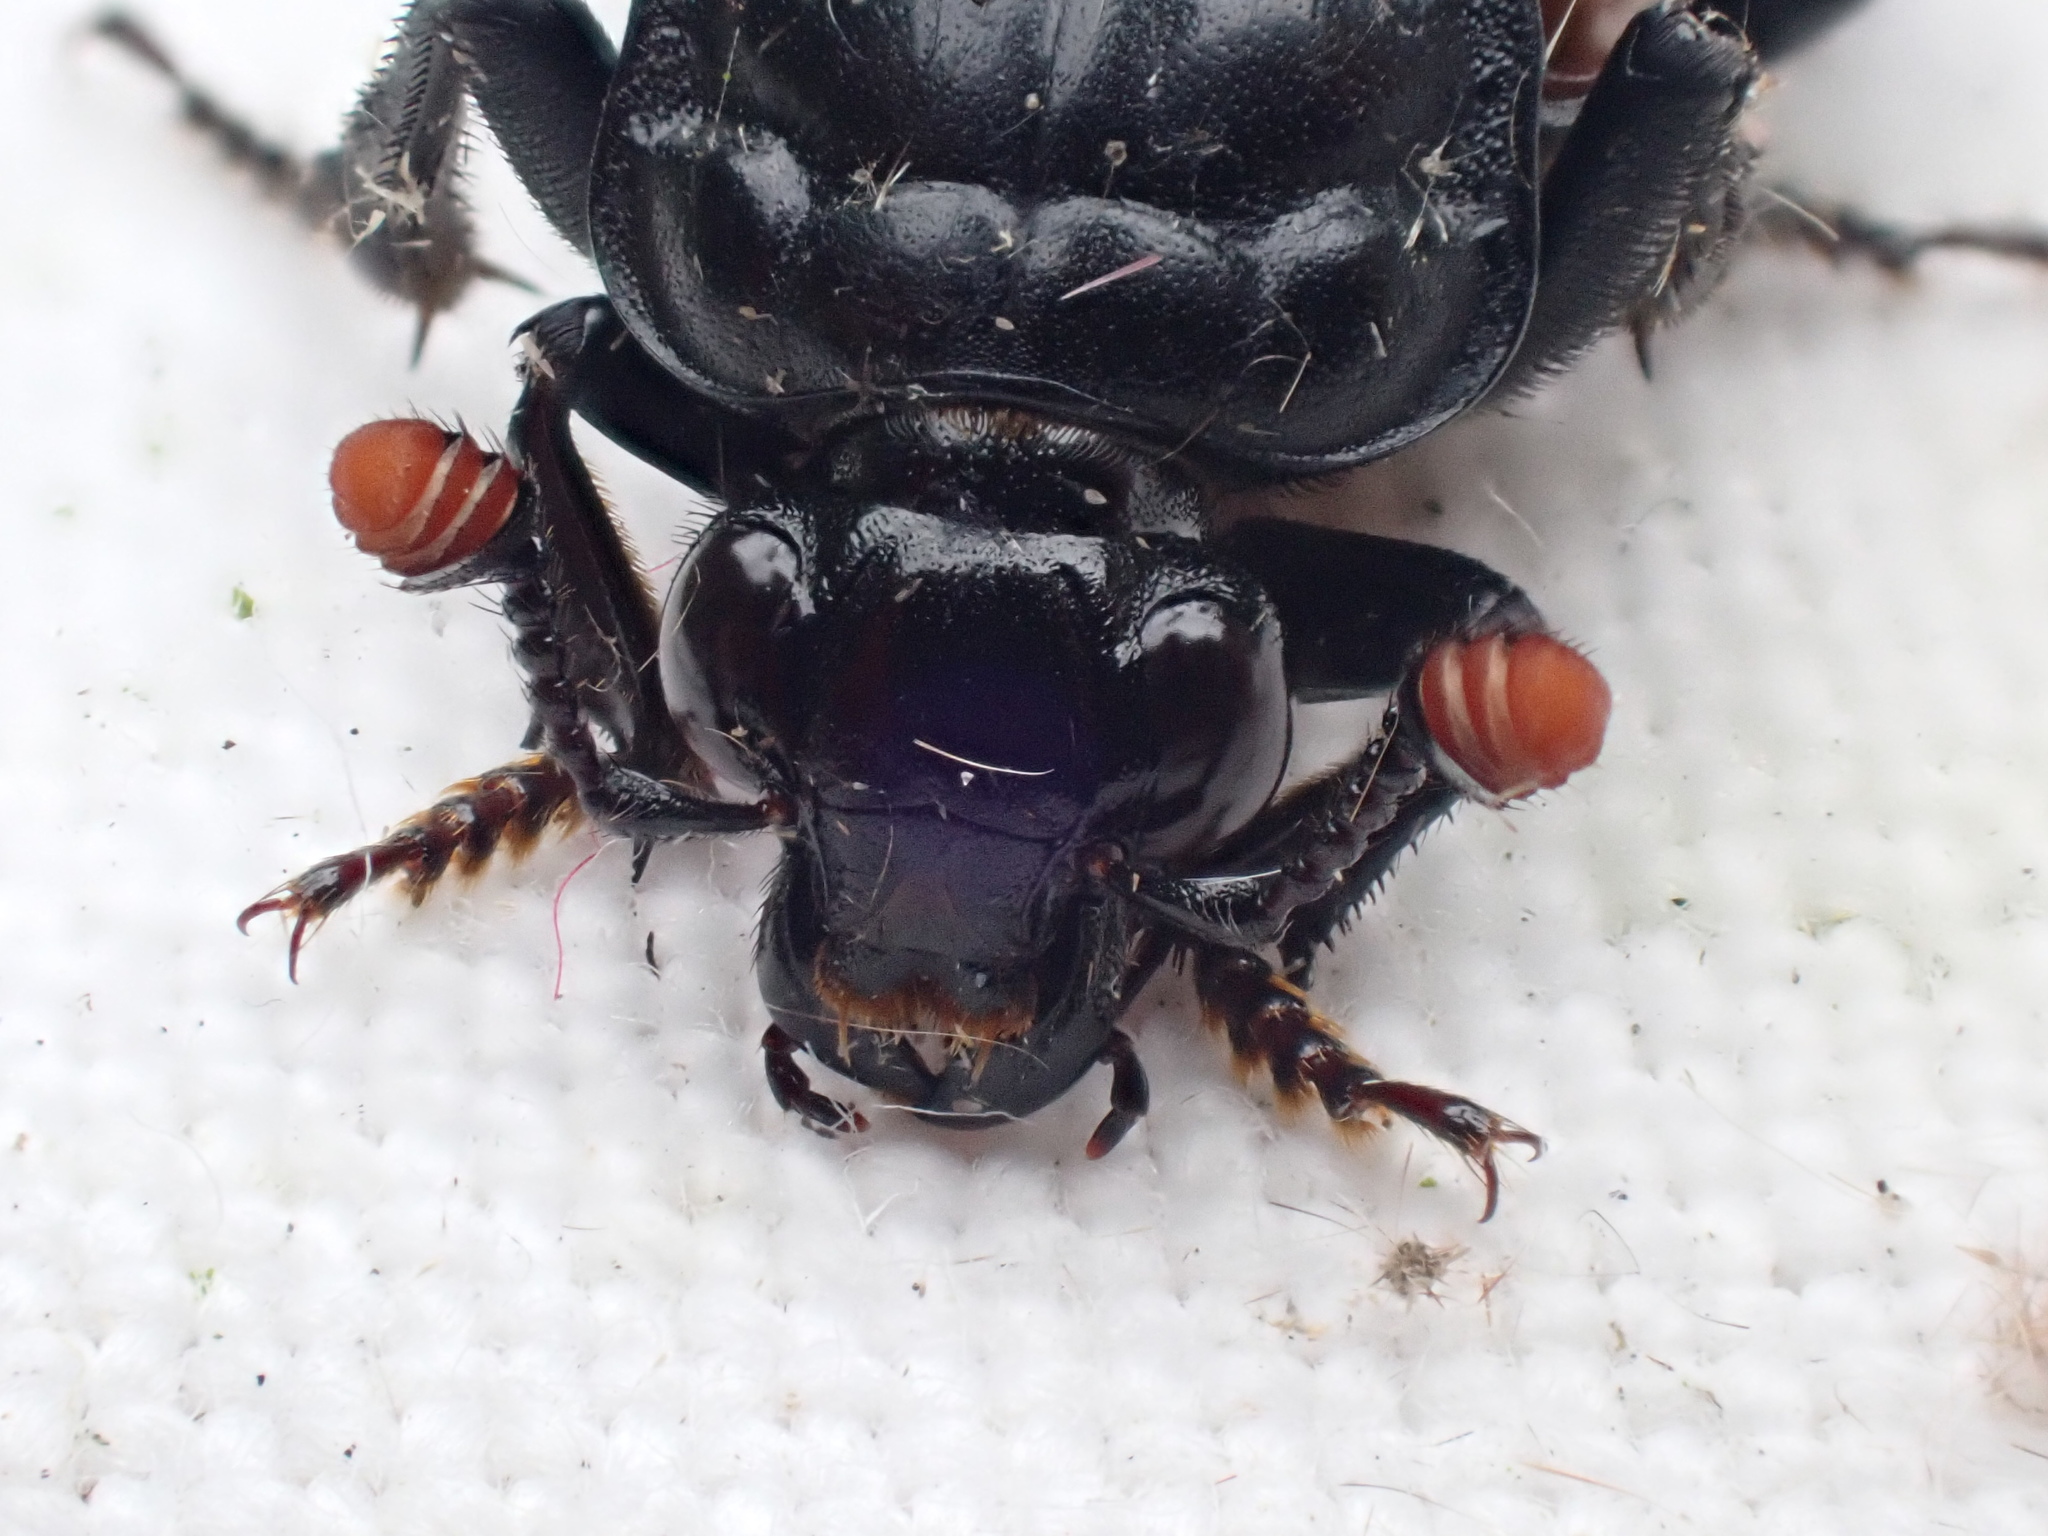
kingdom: Animalia
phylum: Arthropoda
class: Insecta
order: Coleoptera
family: Staphylinidae
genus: Nicrophorus
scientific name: Nicrophorus investigator
